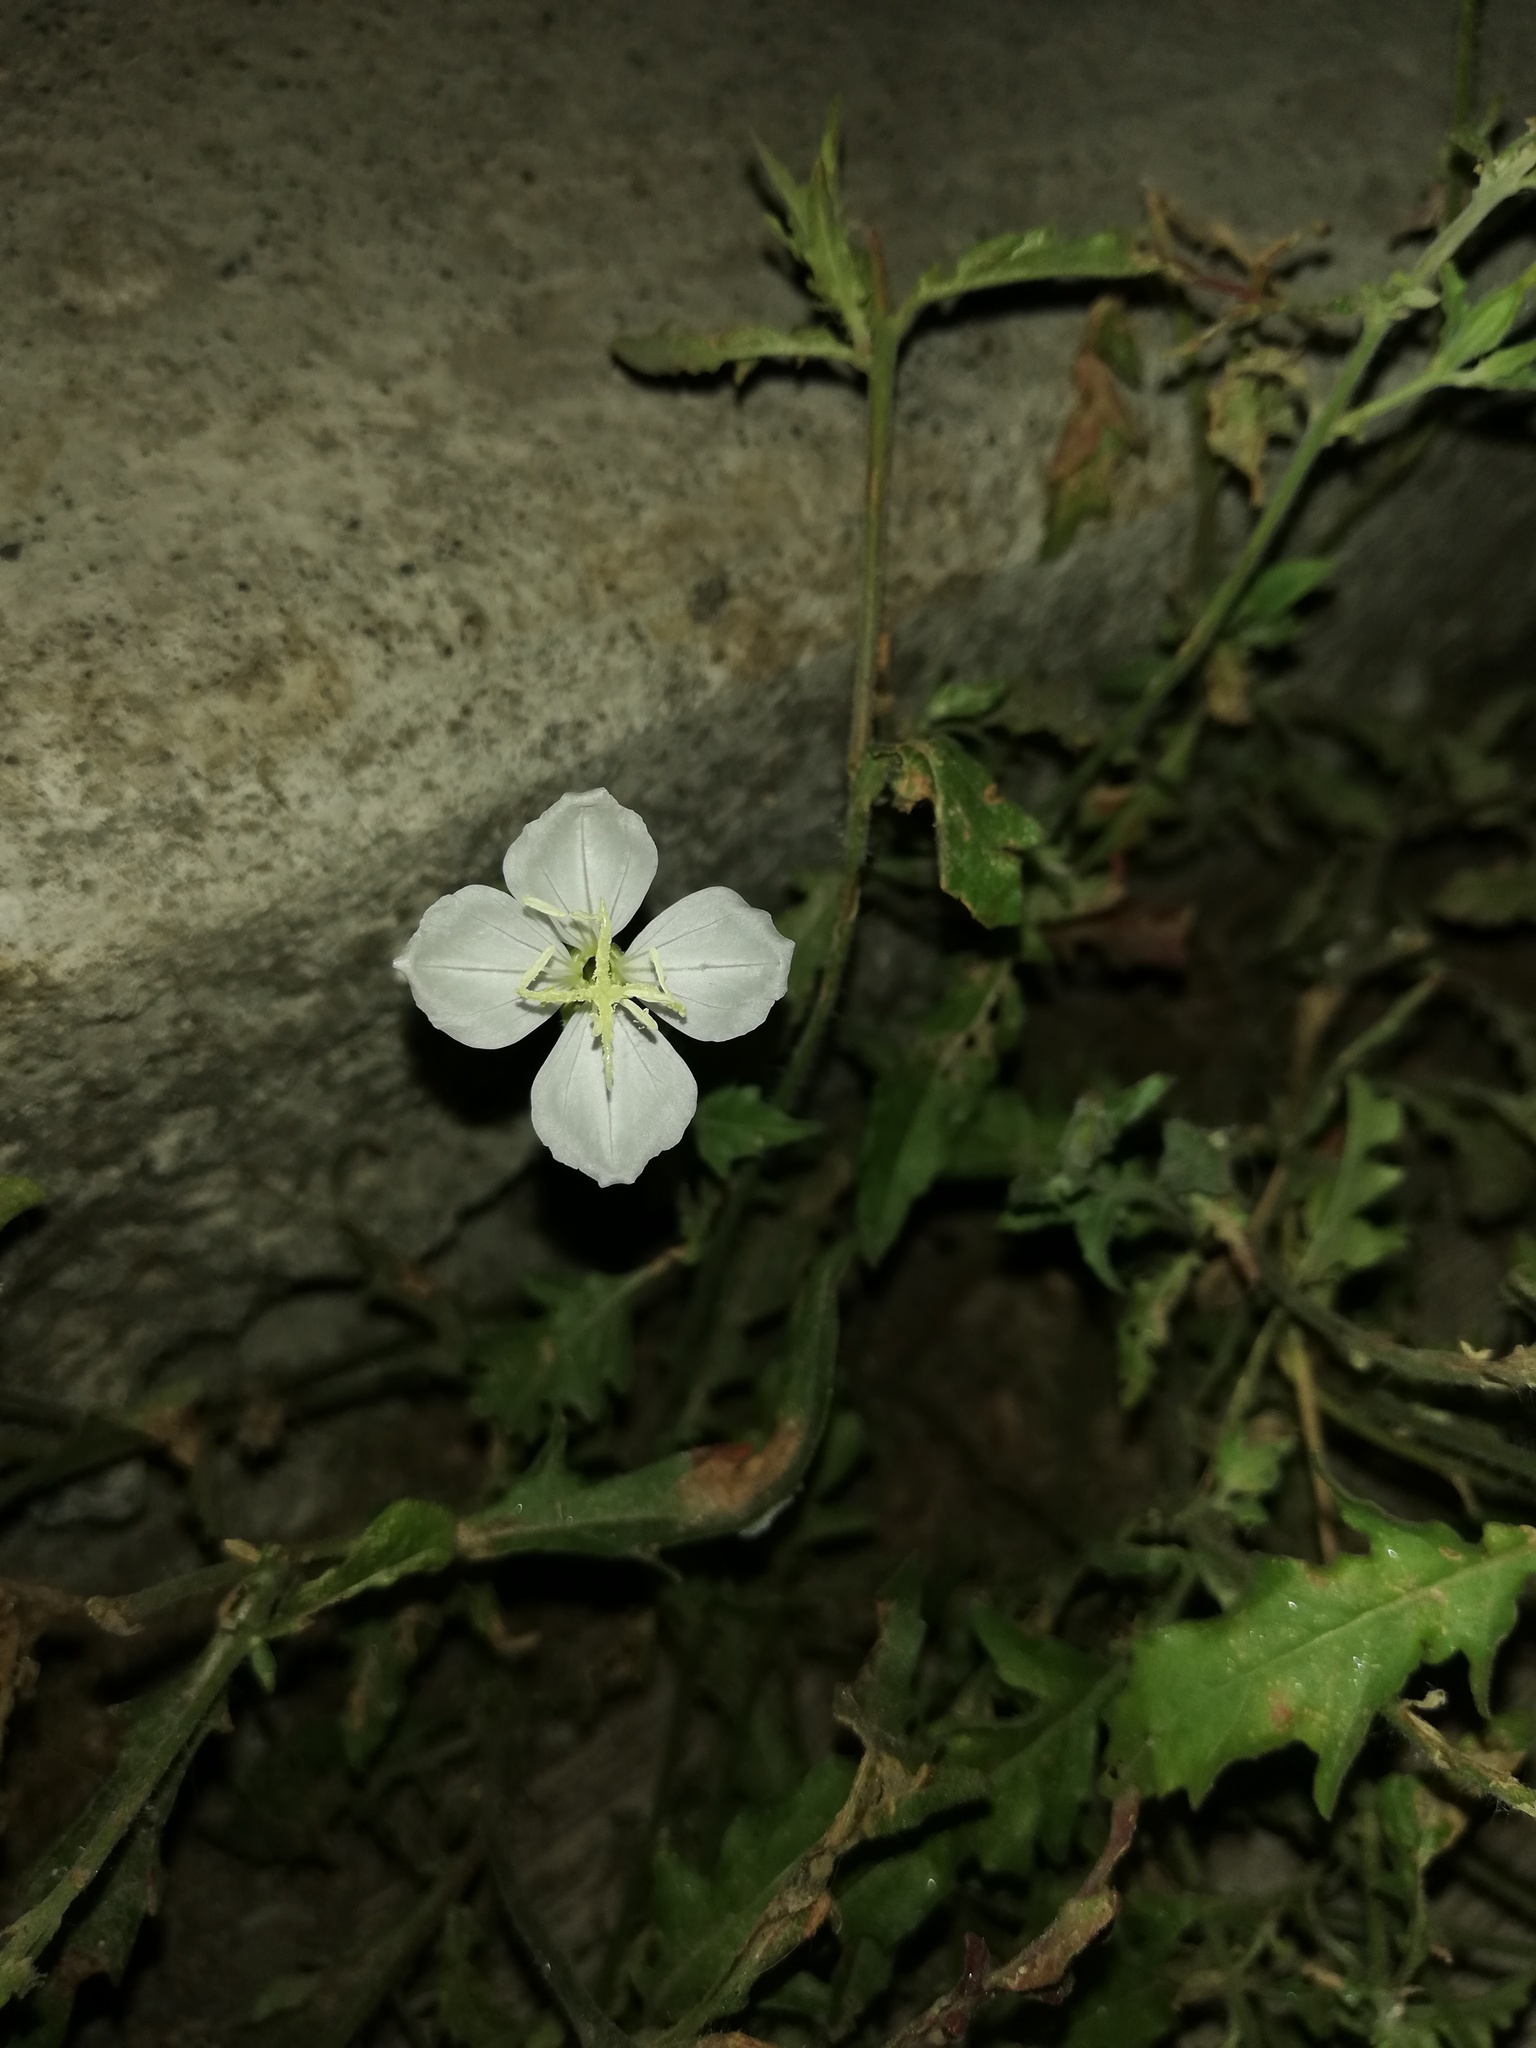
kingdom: Plantae
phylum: Tracheophyta
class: Magnoliopsida
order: Myrtales
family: Onagraceae
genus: Oenothera
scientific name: Oenothera tetraptera
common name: Four-wing evening-primrose
